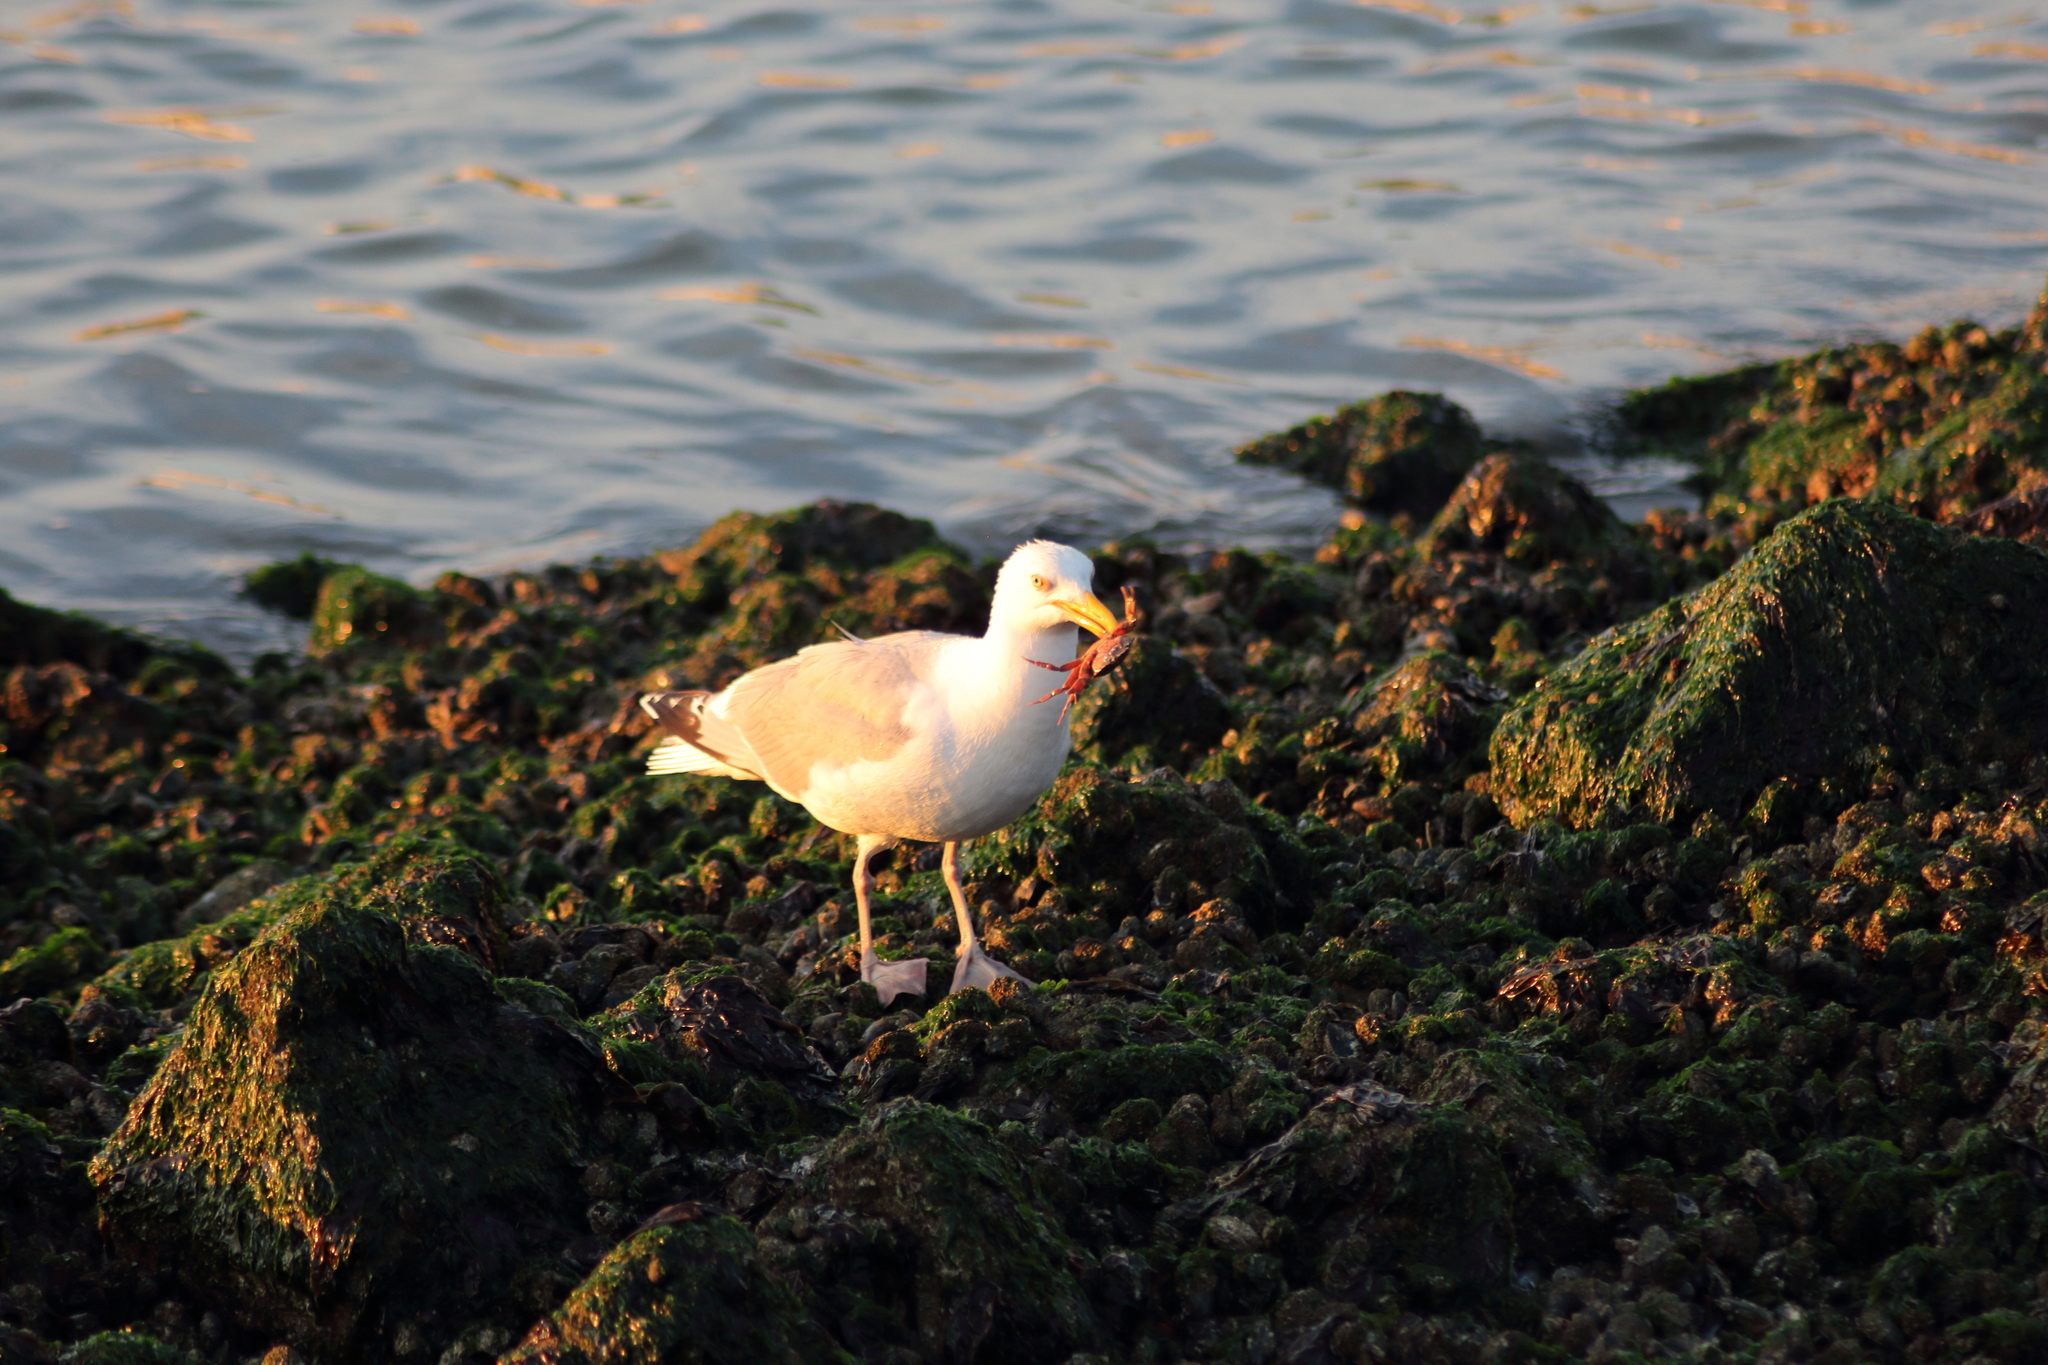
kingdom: Animalia
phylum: Chordata
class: Aves
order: Charadriiformes
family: Laridae
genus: Larus
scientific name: Larus argentatus
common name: Herring gull
